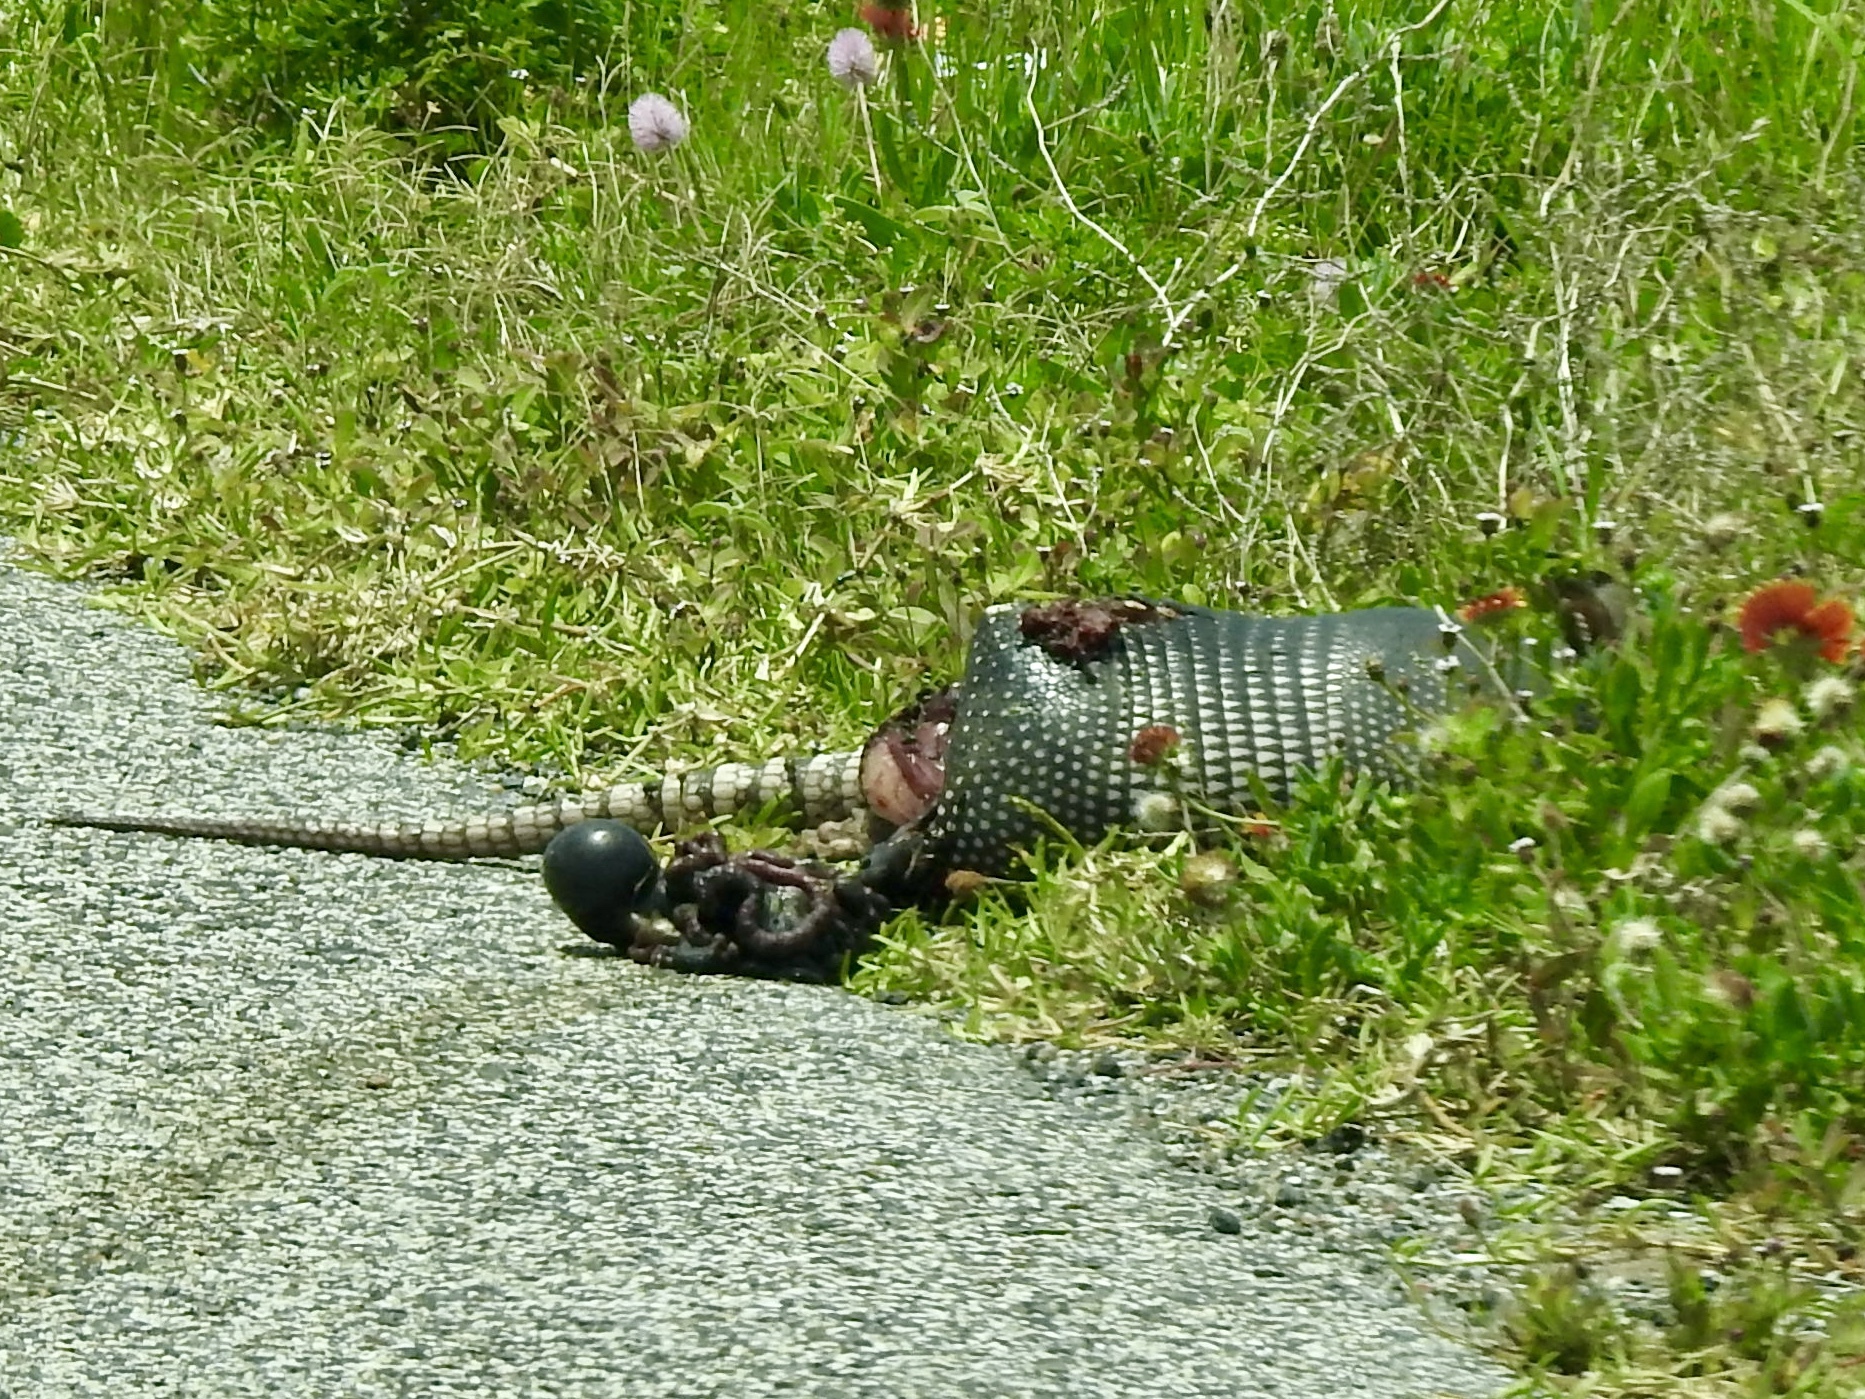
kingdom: Animalia
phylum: Chordata
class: Mammalia
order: Cingulata
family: Dasypodidae
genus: Dasypus
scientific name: Dasypus novemcinctus
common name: Nine-banded armadillo
